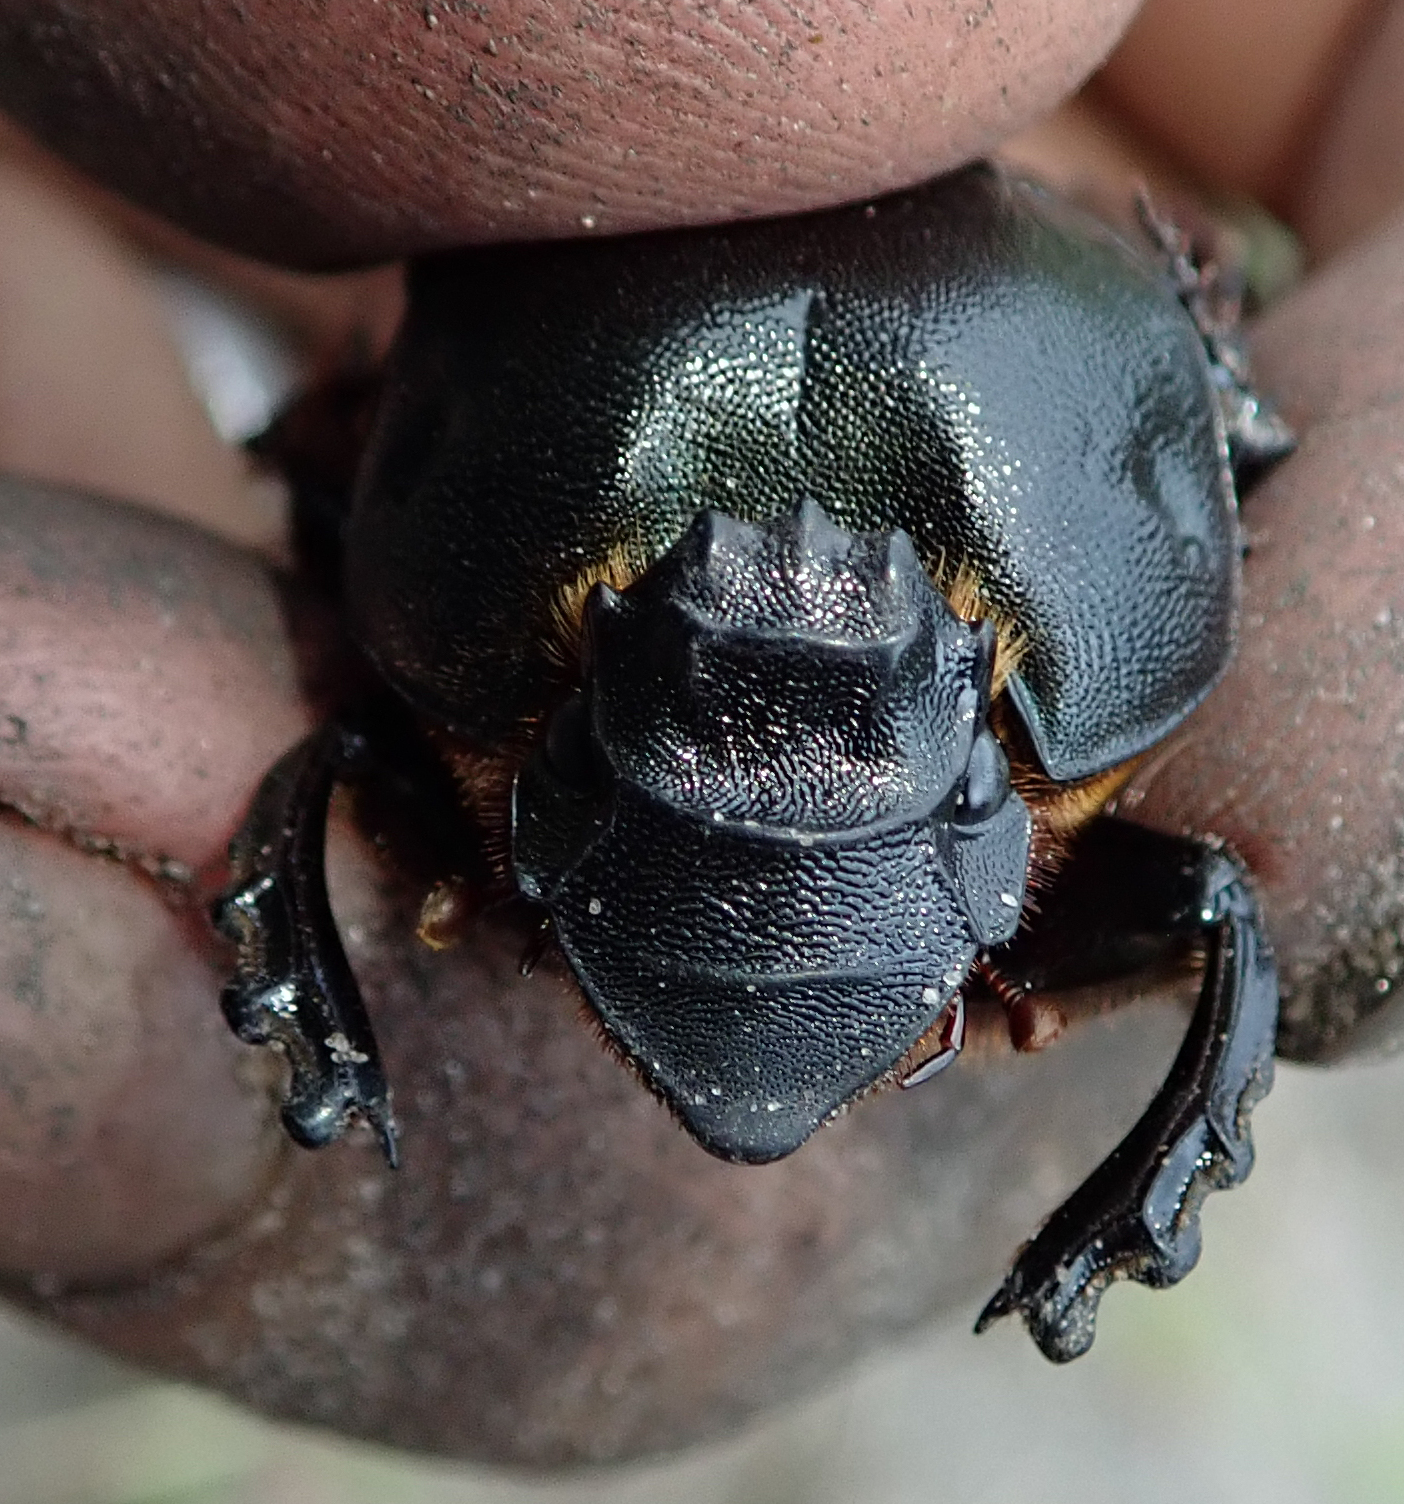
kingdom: Animalia
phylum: Arthropoda
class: Insecta
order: Coleoptera
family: Scarabaeidae
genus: Heteronitis
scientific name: Heteronitis castelnaui
